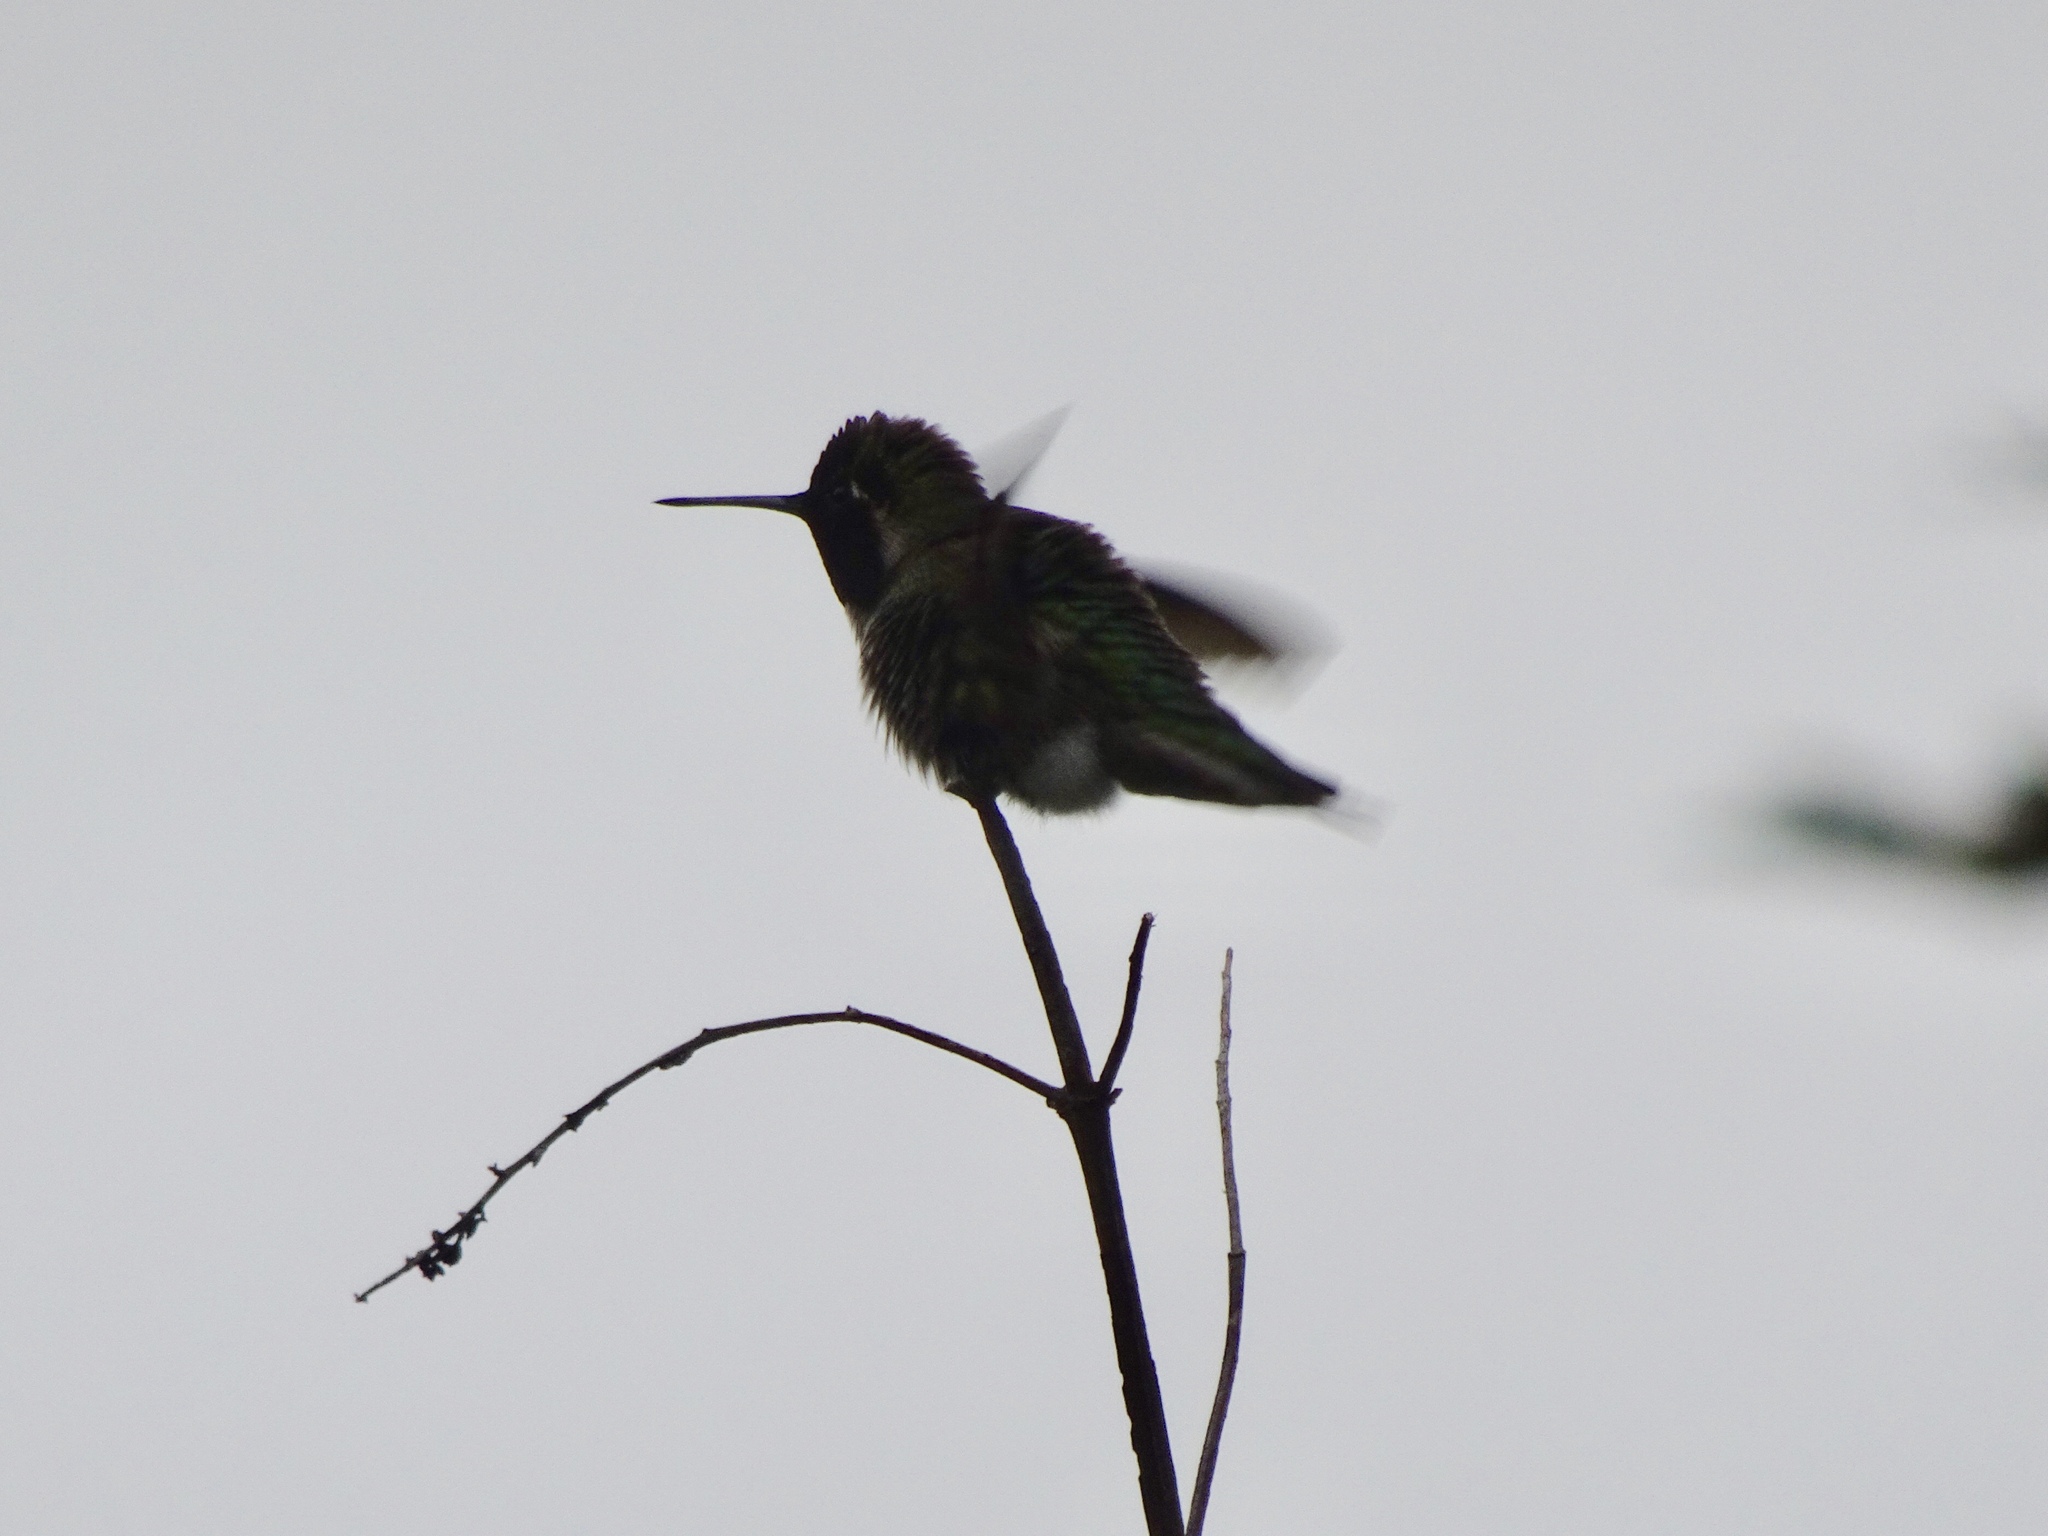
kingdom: Animalia
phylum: Chordata
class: Aves
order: Apodiformes
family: Trochilidae
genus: Calypte
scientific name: Calypte anna
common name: Anna's hummingbird
